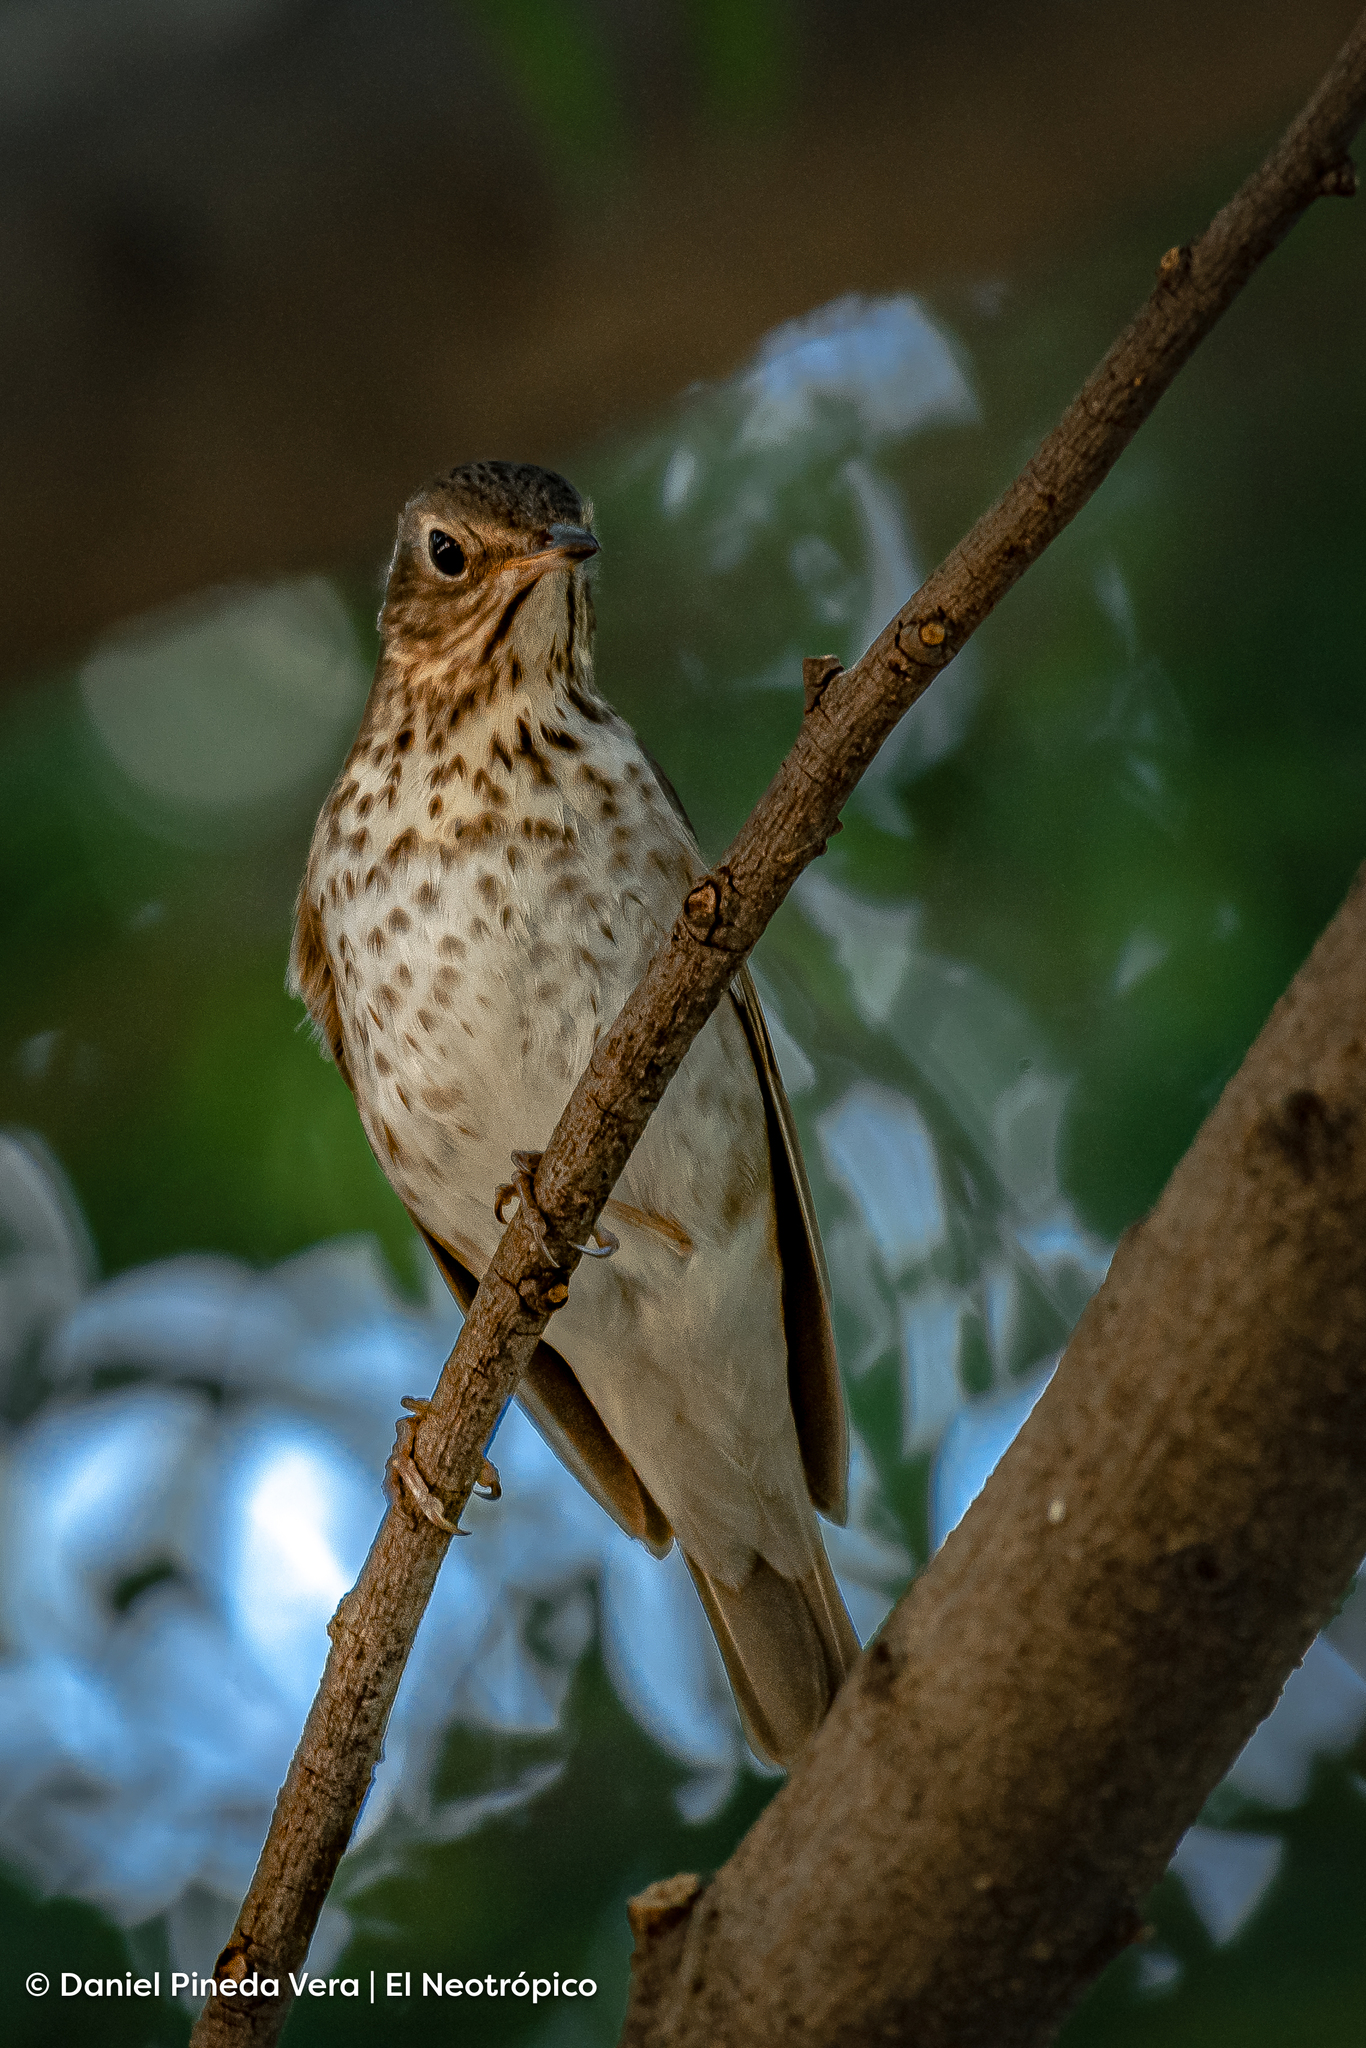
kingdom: Animalia
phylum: Chordata
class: Aves
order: Passeriformes
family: Turdidae
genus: Catharus
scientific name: Catharus ustulatus
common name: Swainson's thrush
